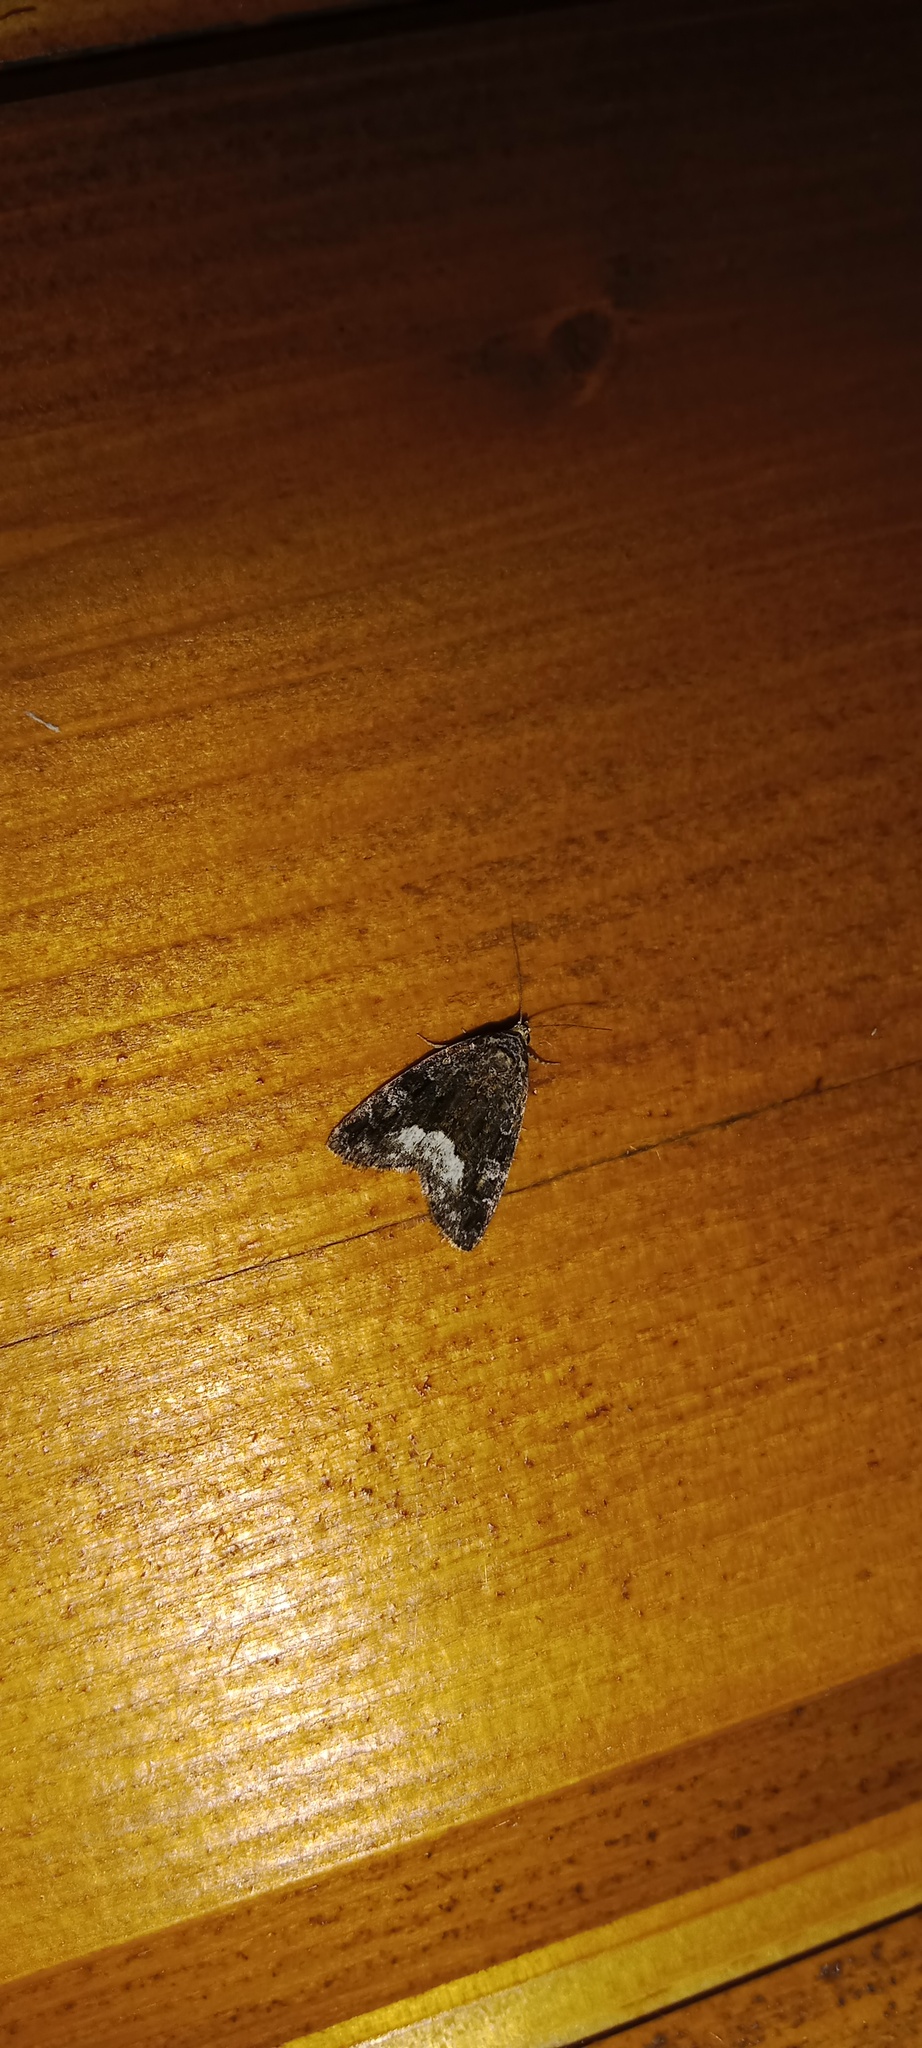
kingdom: Animalia
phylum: Arthropoda
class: Insecta
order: Lepidoptera
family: Noctuidae
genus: Deltote
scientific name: Deltote pygarga
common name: Marbled white spot
